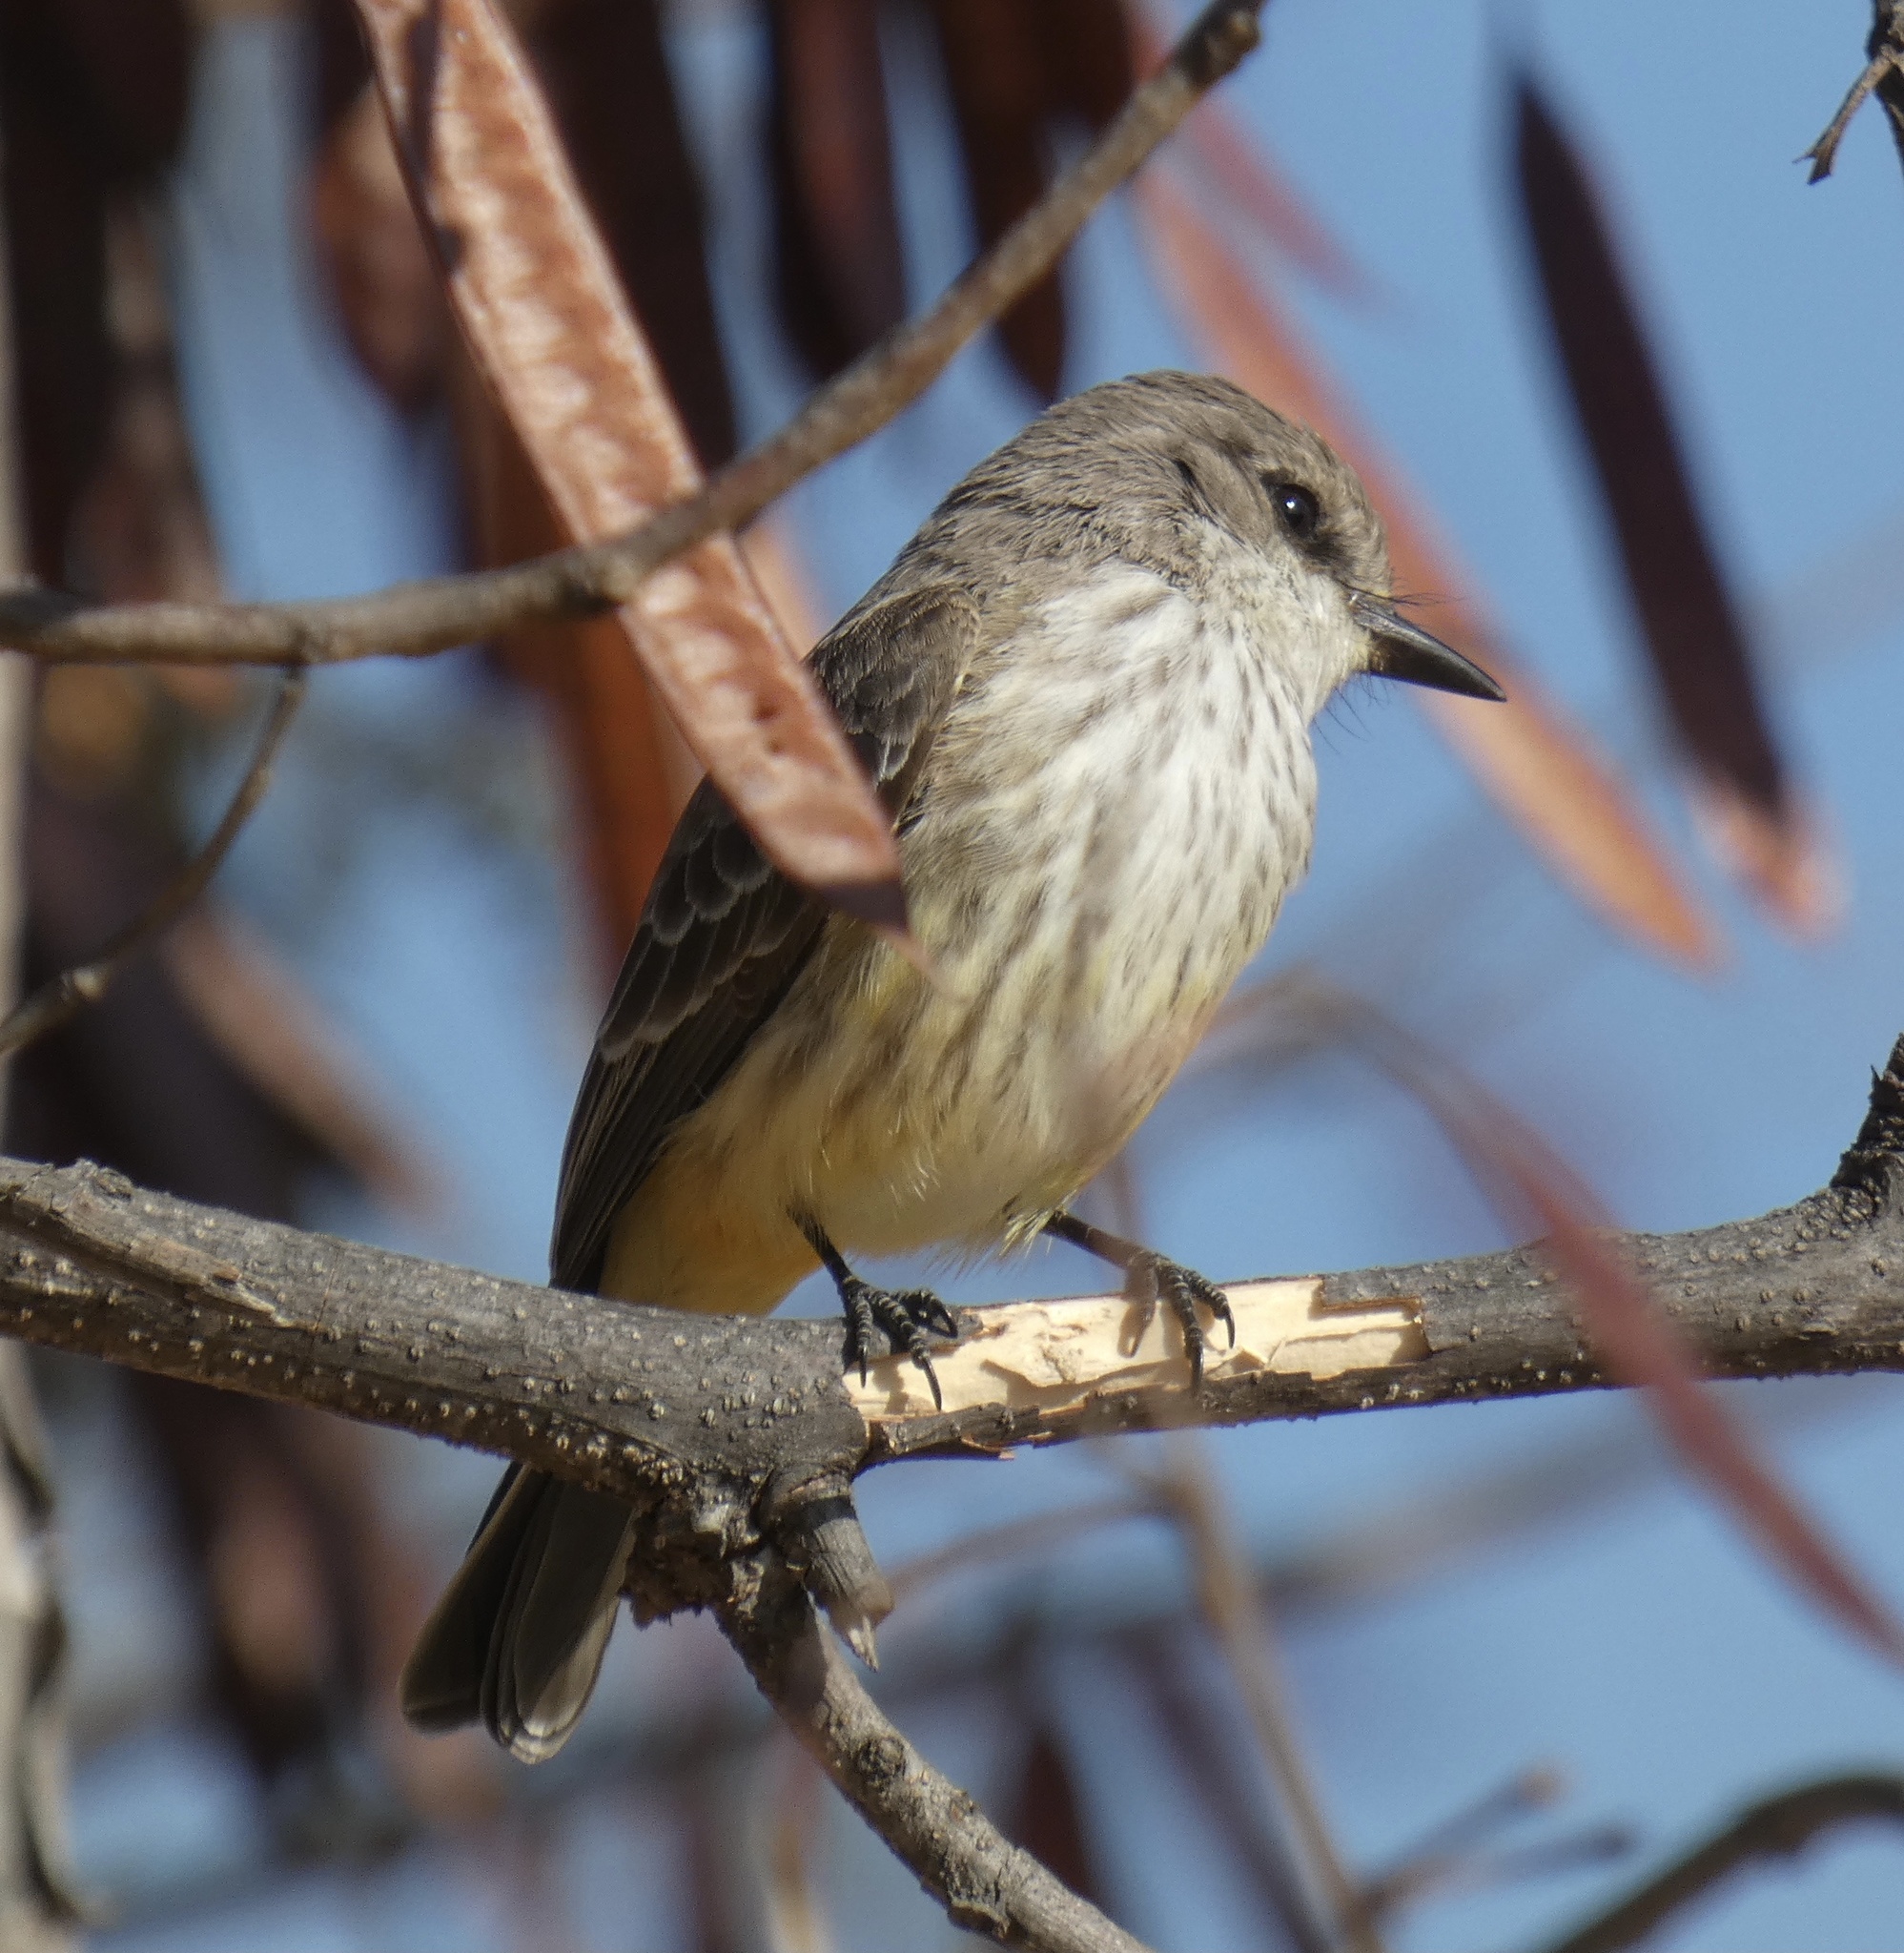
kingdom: Animalia
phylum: Chordata
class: Aves
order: Passeriformes
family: Tyrannidae
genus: Pyrocephalus
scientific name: Pyrocephalus rubinus
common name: Vermilion flycatcher
